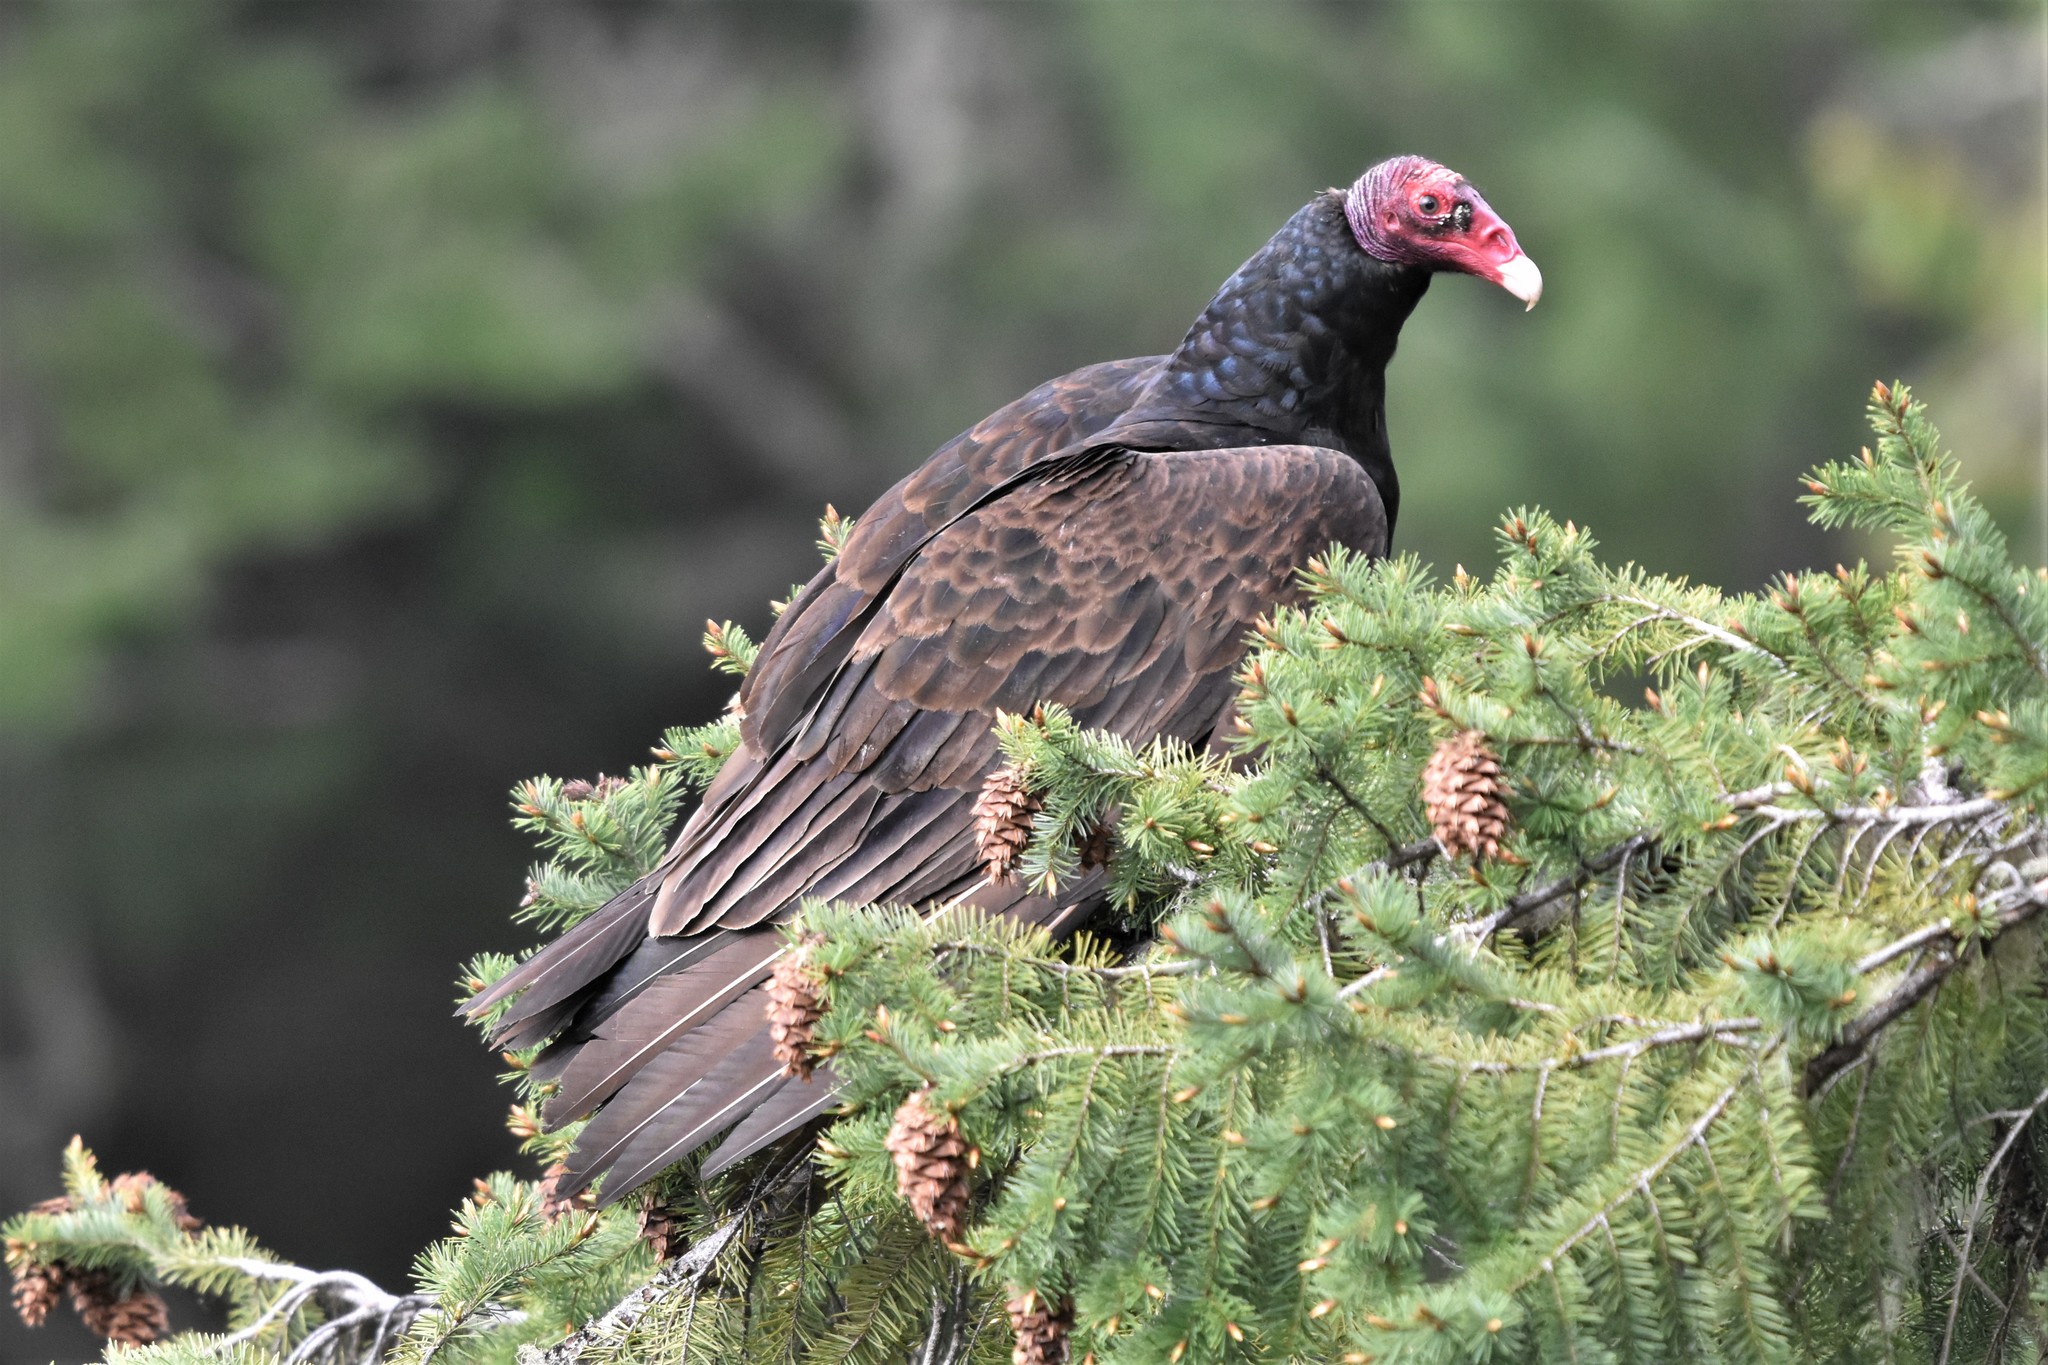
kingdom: Animalia
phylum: Chordata
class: Aves
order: Accipitriformes
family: Cathartidae
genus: Cathartes
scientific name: Cathartes aura
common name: Turkey vulture
